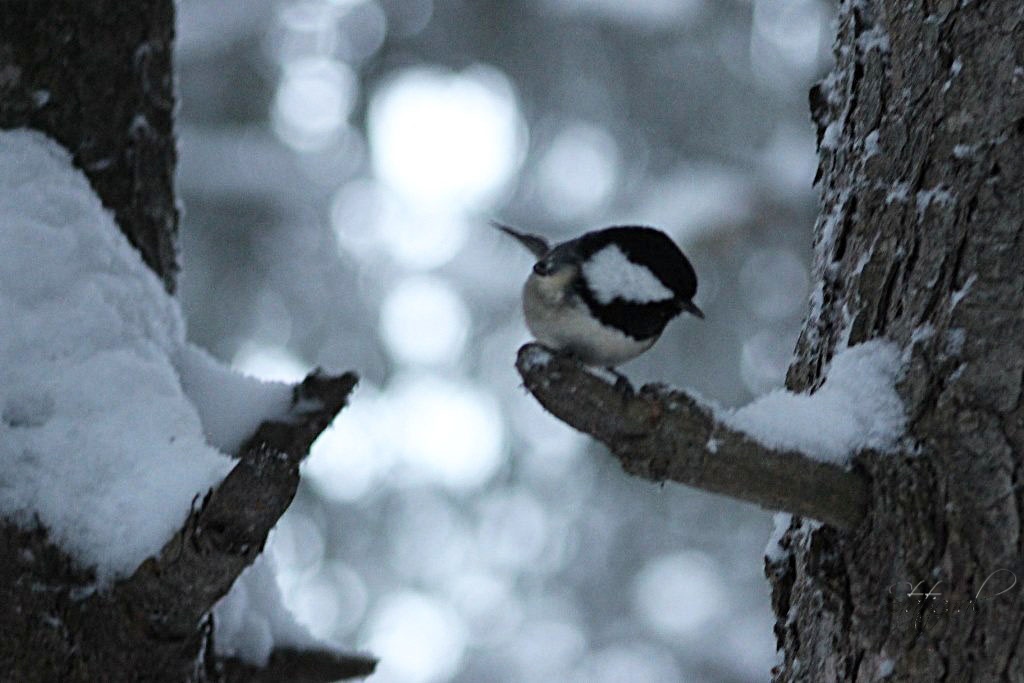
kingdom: Animalia
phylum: Chordata
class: Aves
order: Passeriformes
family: Paridae
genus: Periparus
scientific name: Periparus ater
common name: Coal tit
